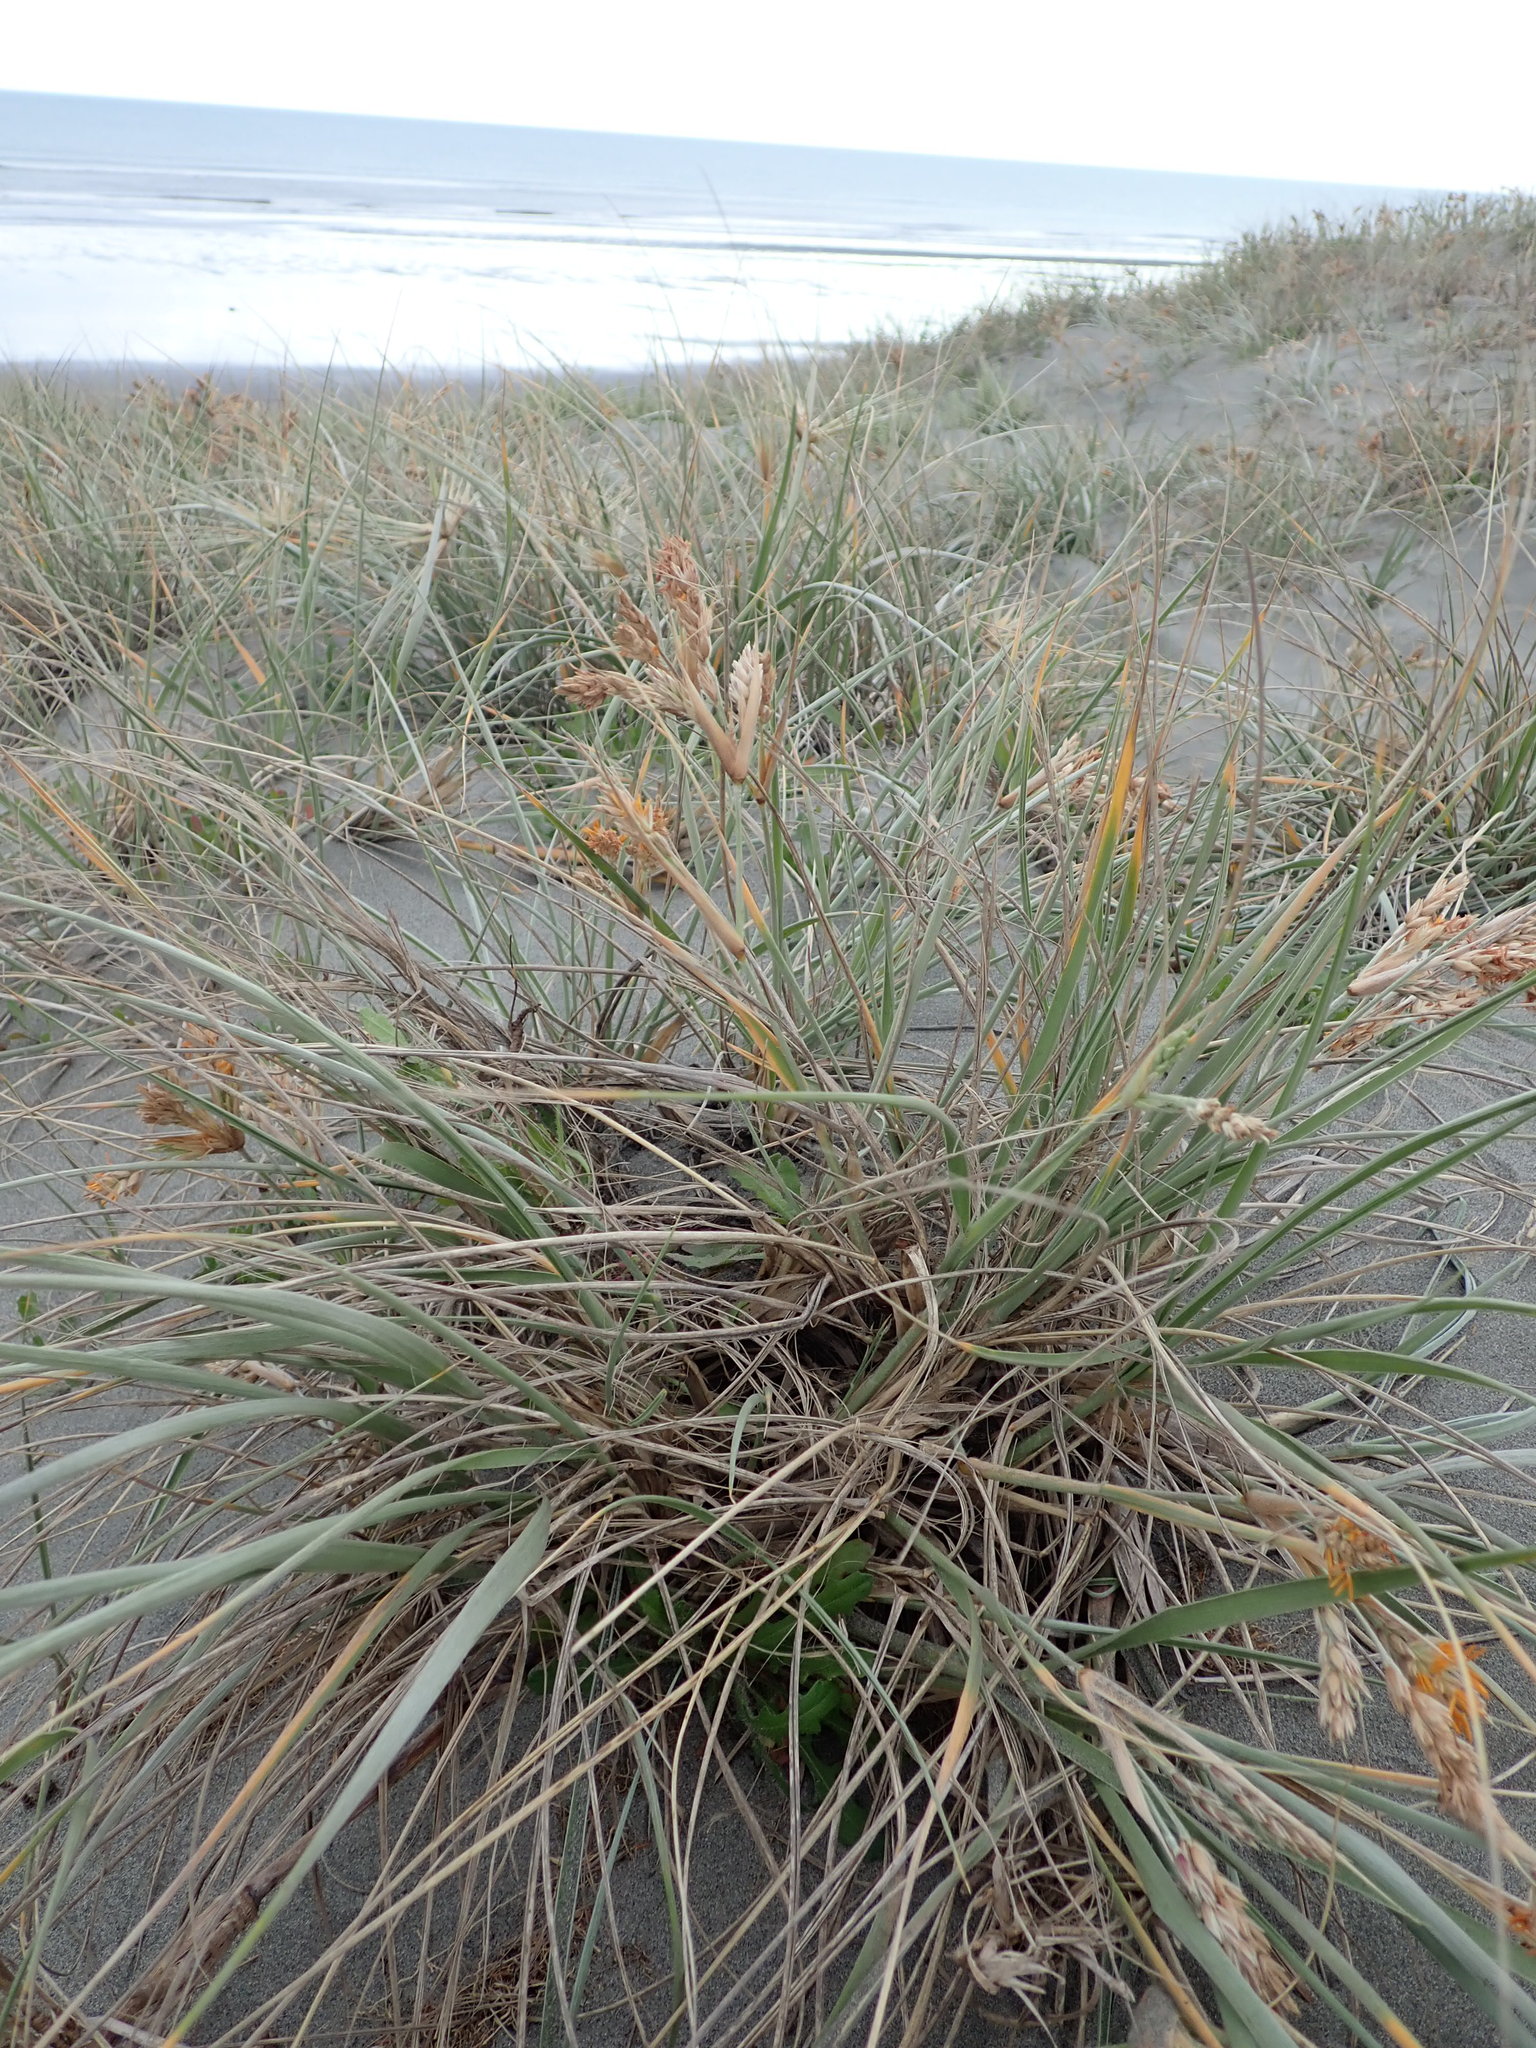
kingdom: Animalia
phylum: Arthropoda
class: Arachnida
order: Araneae
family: Thomisidae
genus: Sidymella
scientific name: Sidymella trapezia
